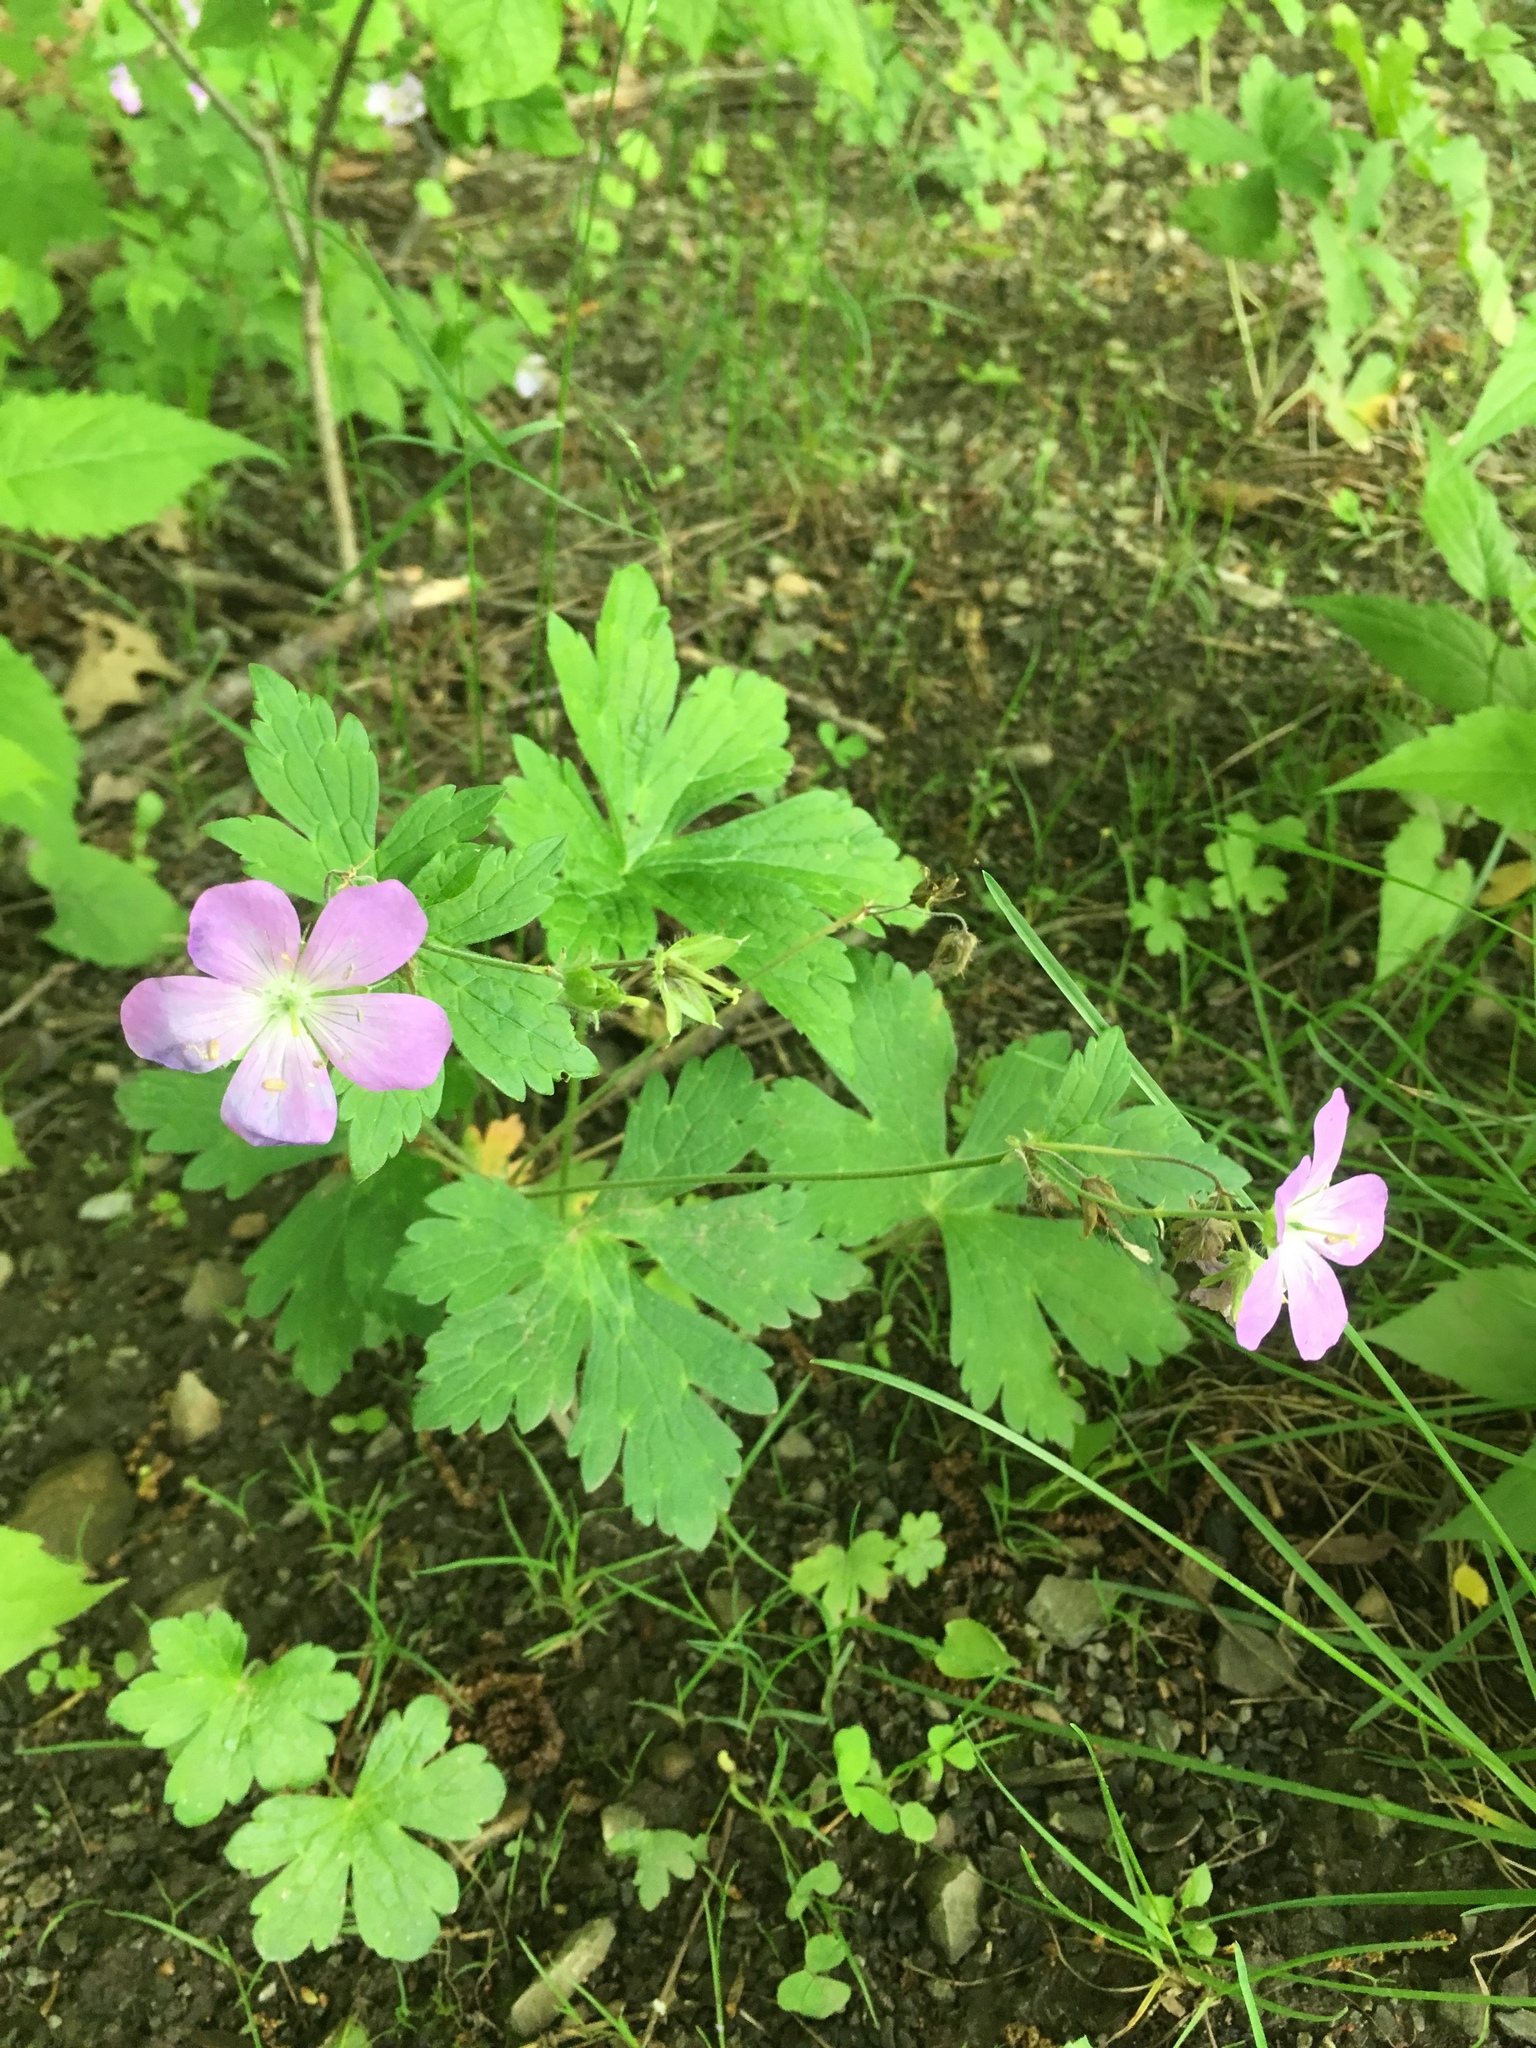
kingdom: Plantae
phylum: Tracheophyta
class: Magnoliopsida
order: Geraniales
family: Geraniaceae
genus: Geranium
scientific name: Geranium maculatum
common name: Spotted geranium
